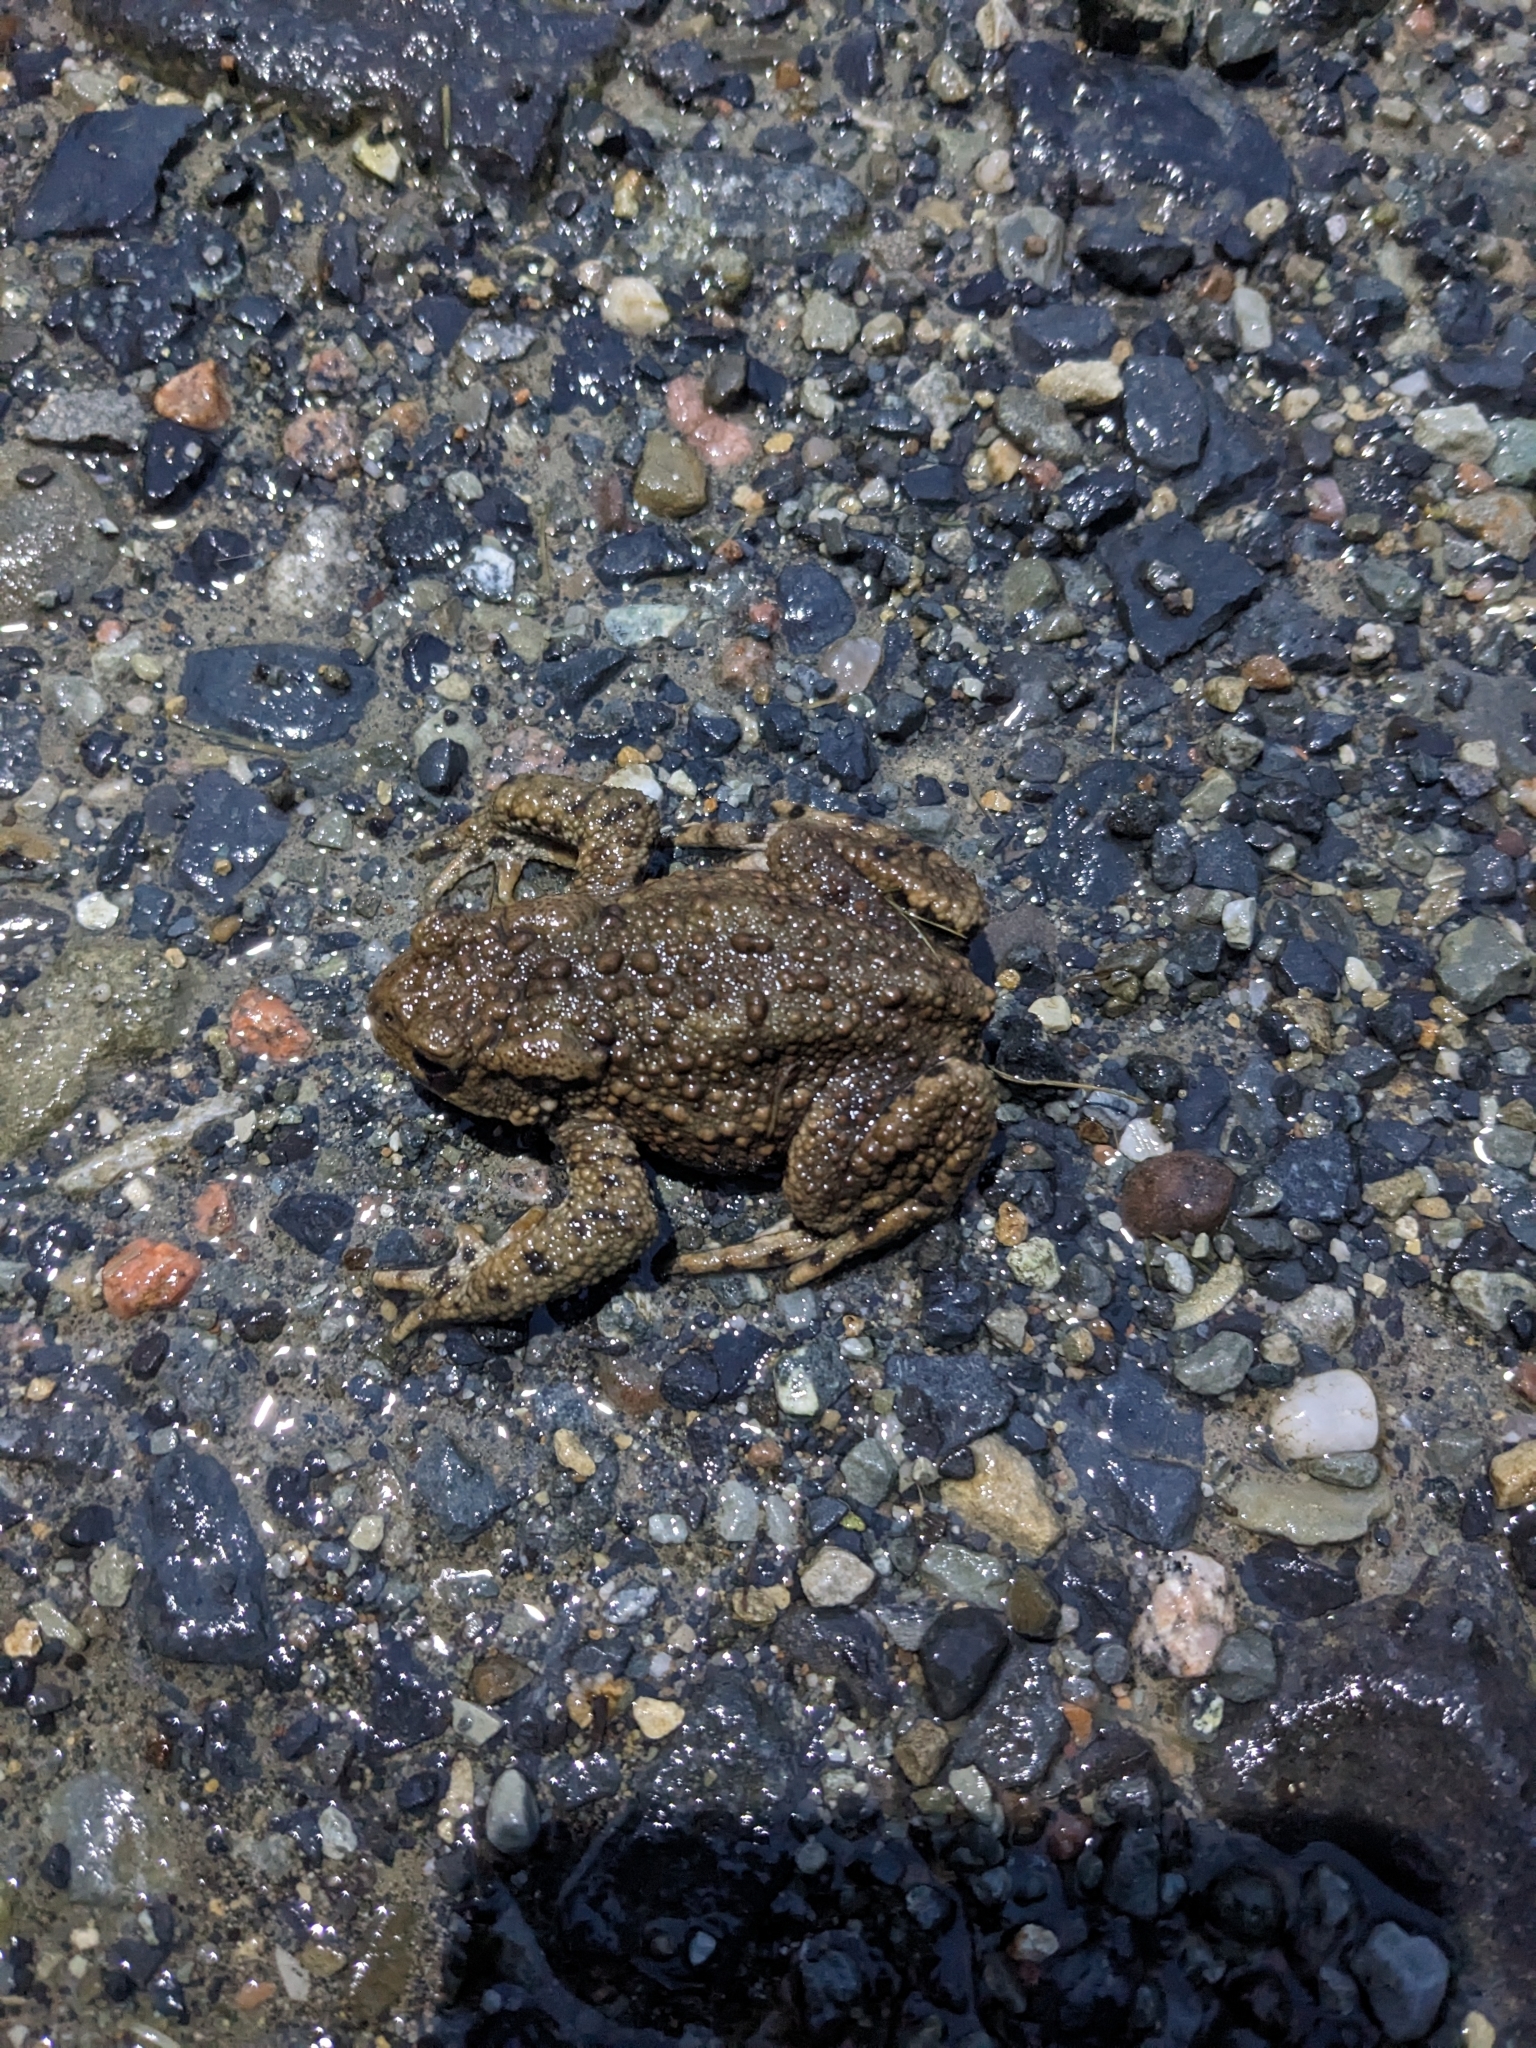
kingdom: Animalia
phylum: Chordata
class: Amphibia
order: Anura
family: Bufonidae
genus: Bufo
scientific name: Bufo bufo
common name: Common toad
